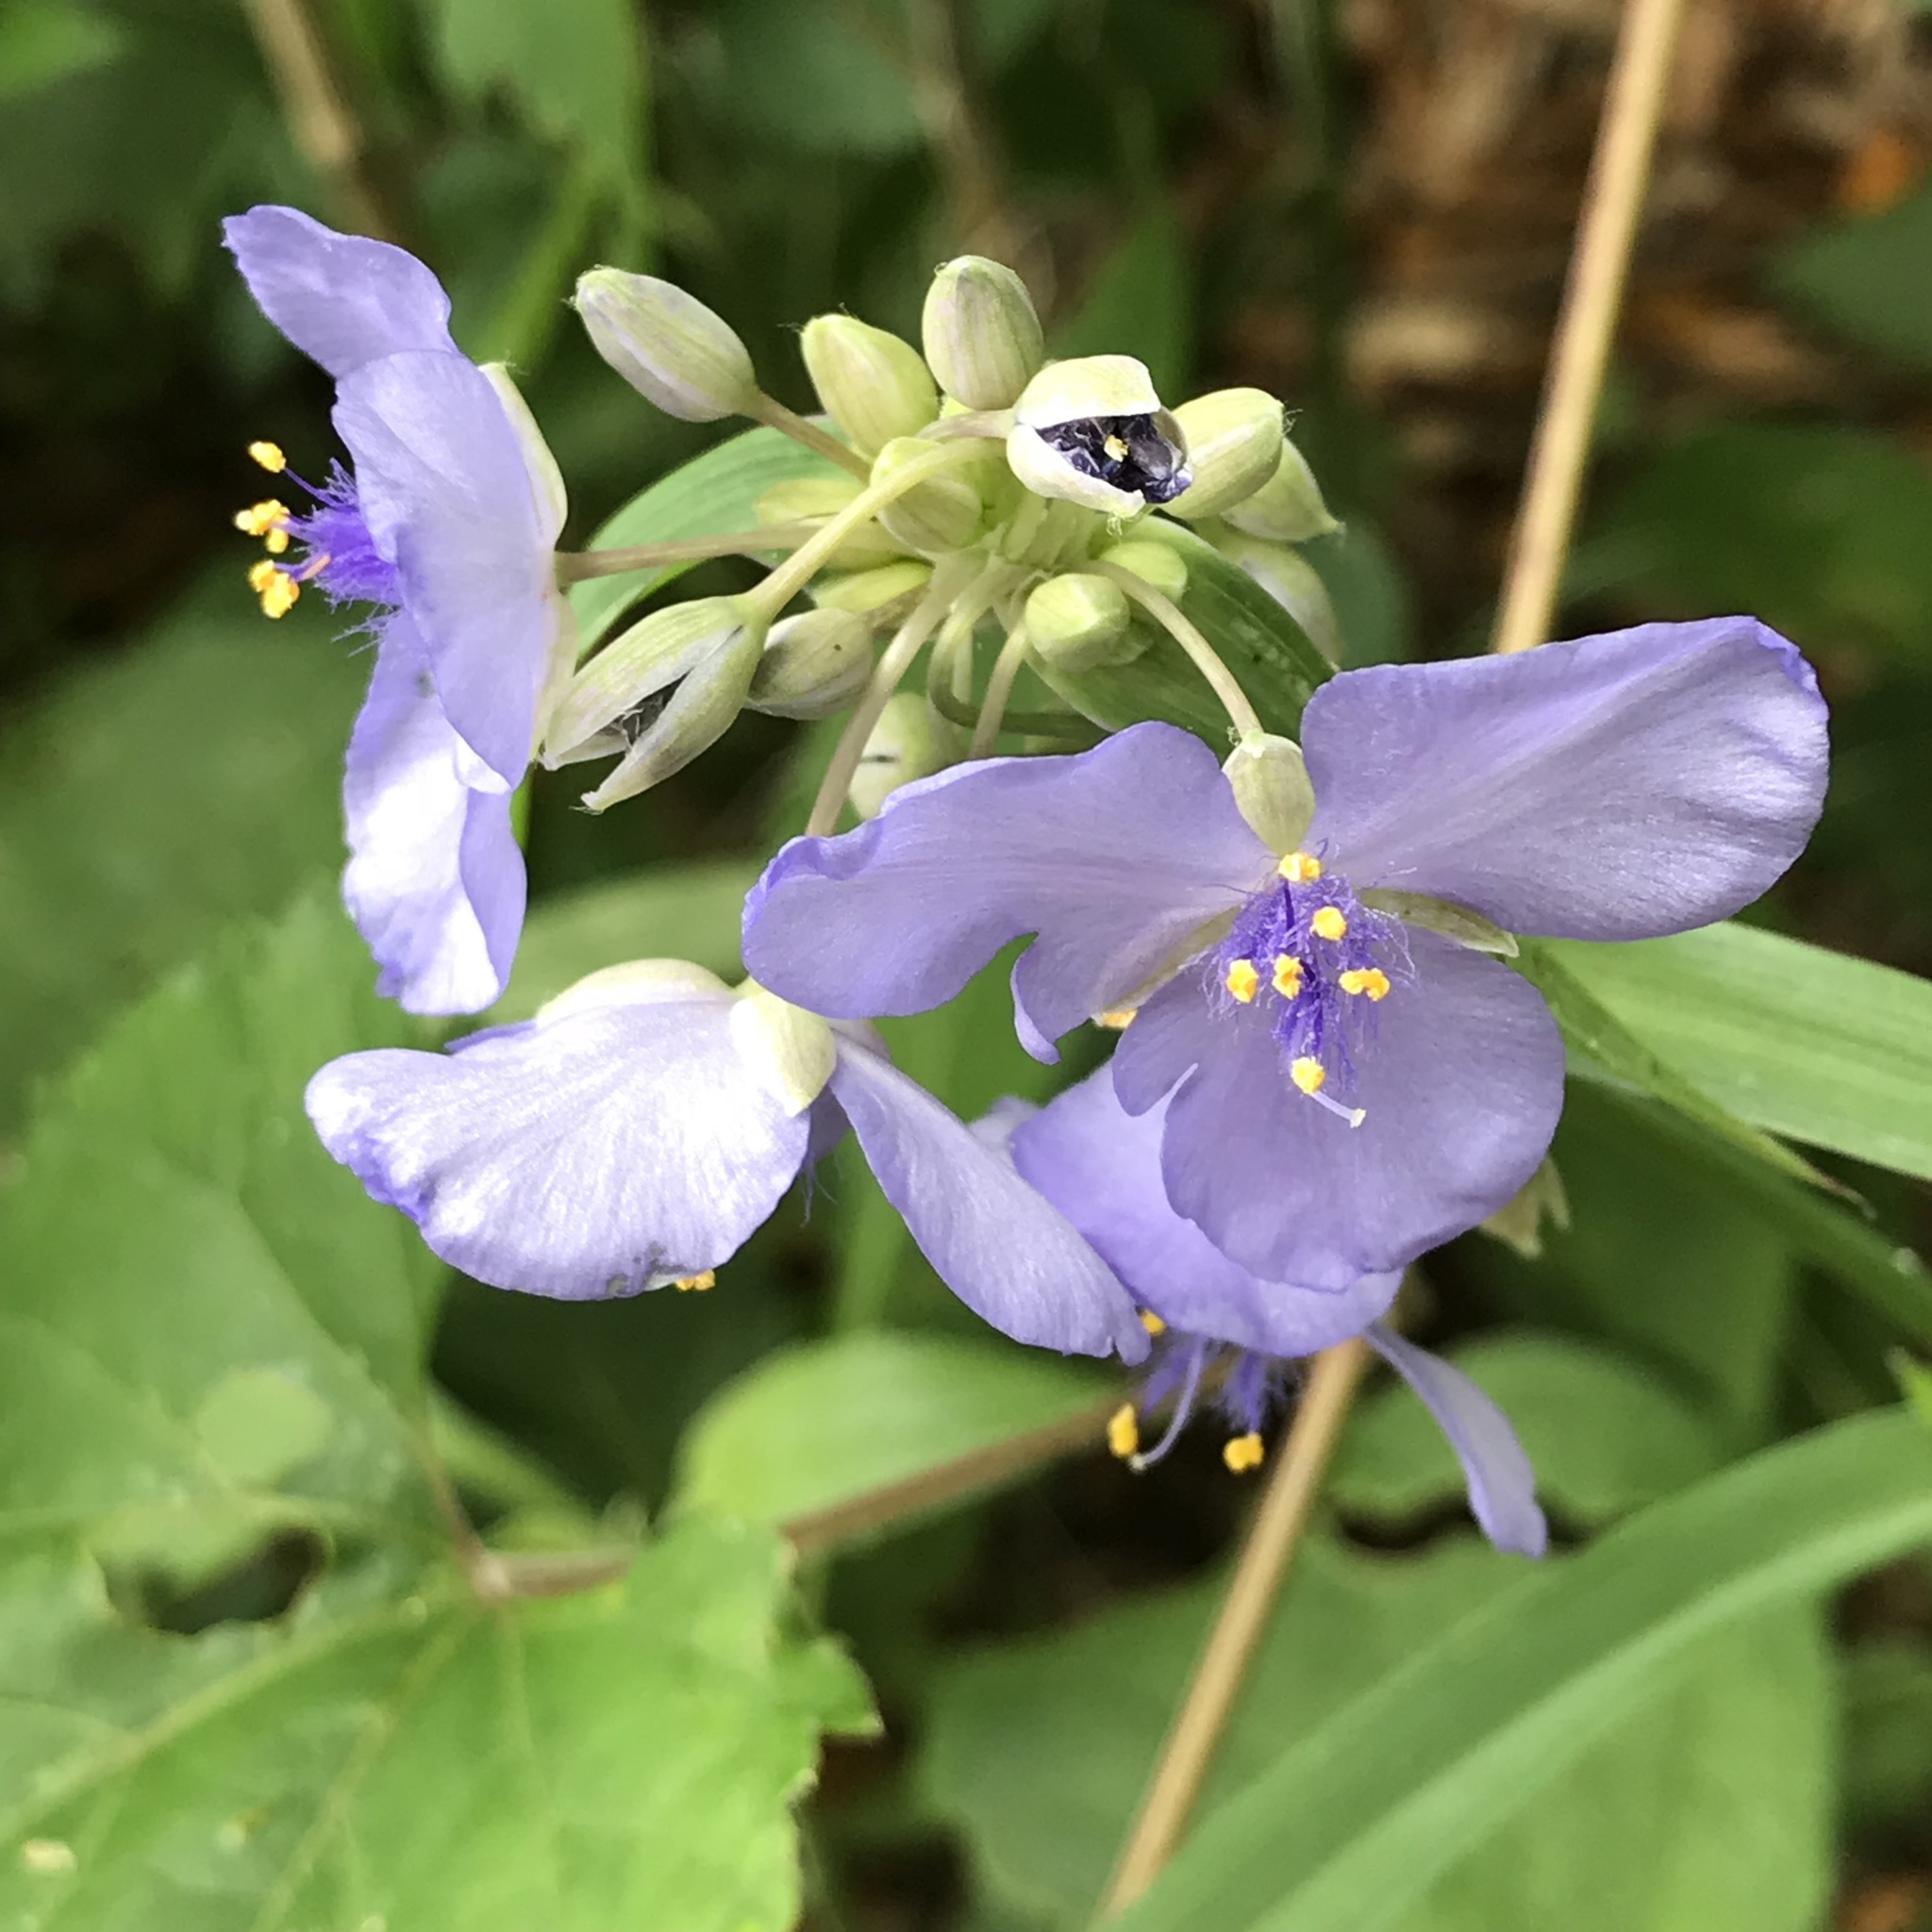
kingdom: Plantae
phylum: Tracheophyta
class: Liliopsida
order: Commelinales
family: Commelinaceae
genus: Tradescantia
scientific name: Tradescantia ohiensis
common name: Ohio spiderwort
